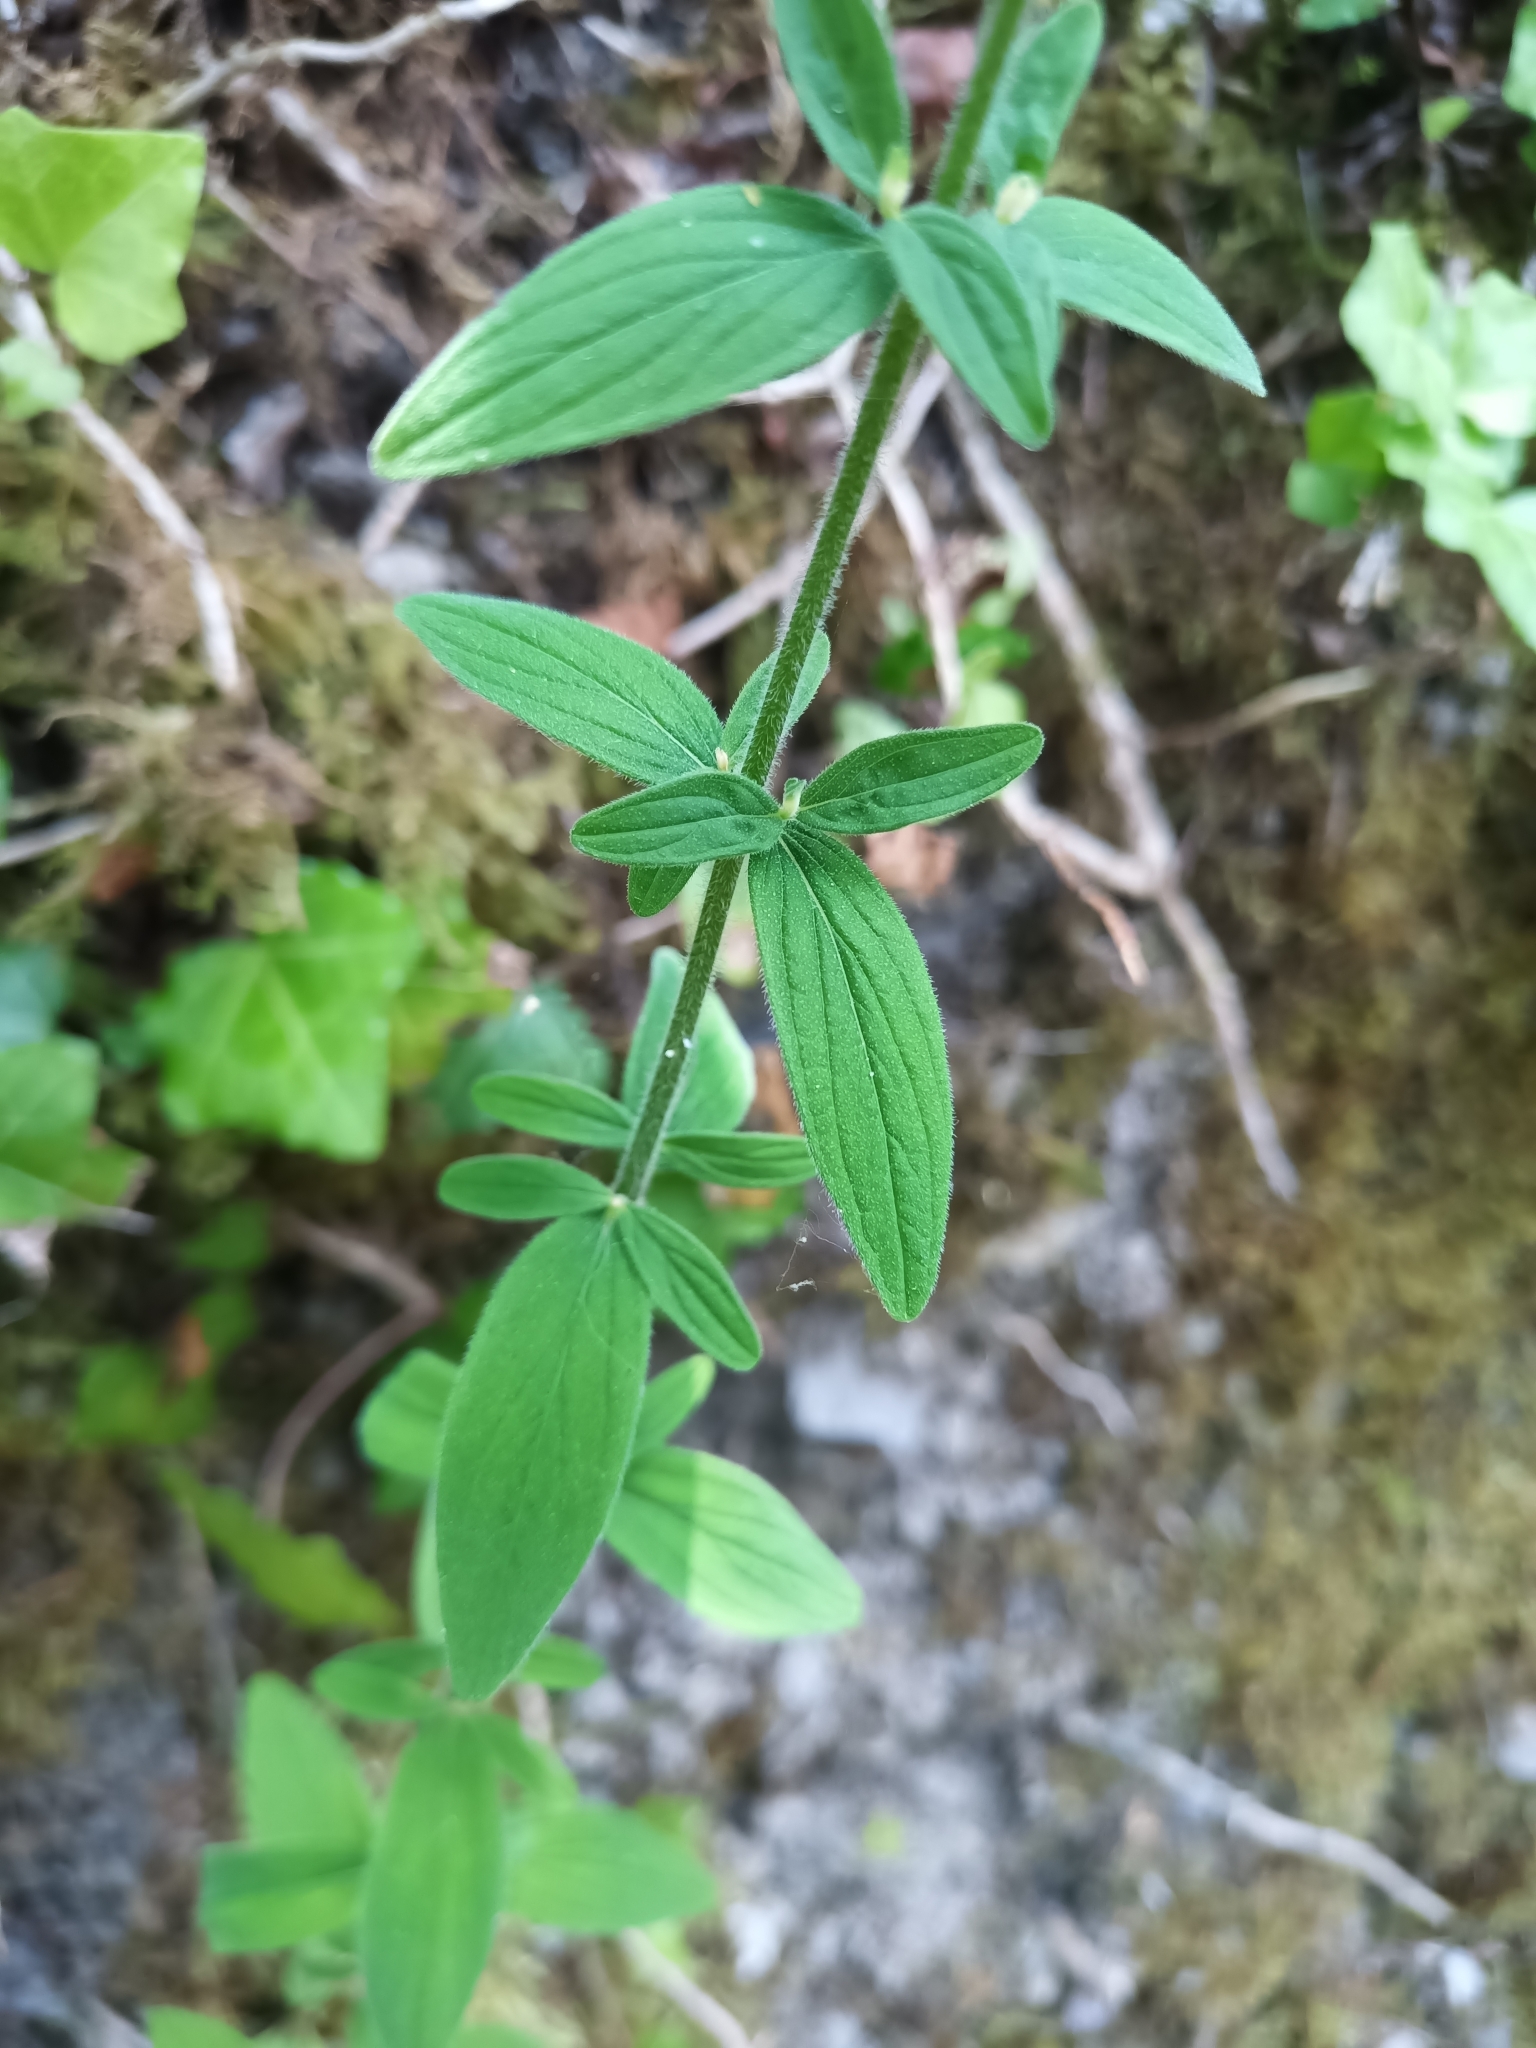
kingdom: Plantae
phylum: Tracheophyta
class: Magnoliopsida
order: Malpighiales
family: Hypericaceae
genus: Hypericum
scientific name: Hypericum hirsutum
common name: Hairy st. john's-wort
